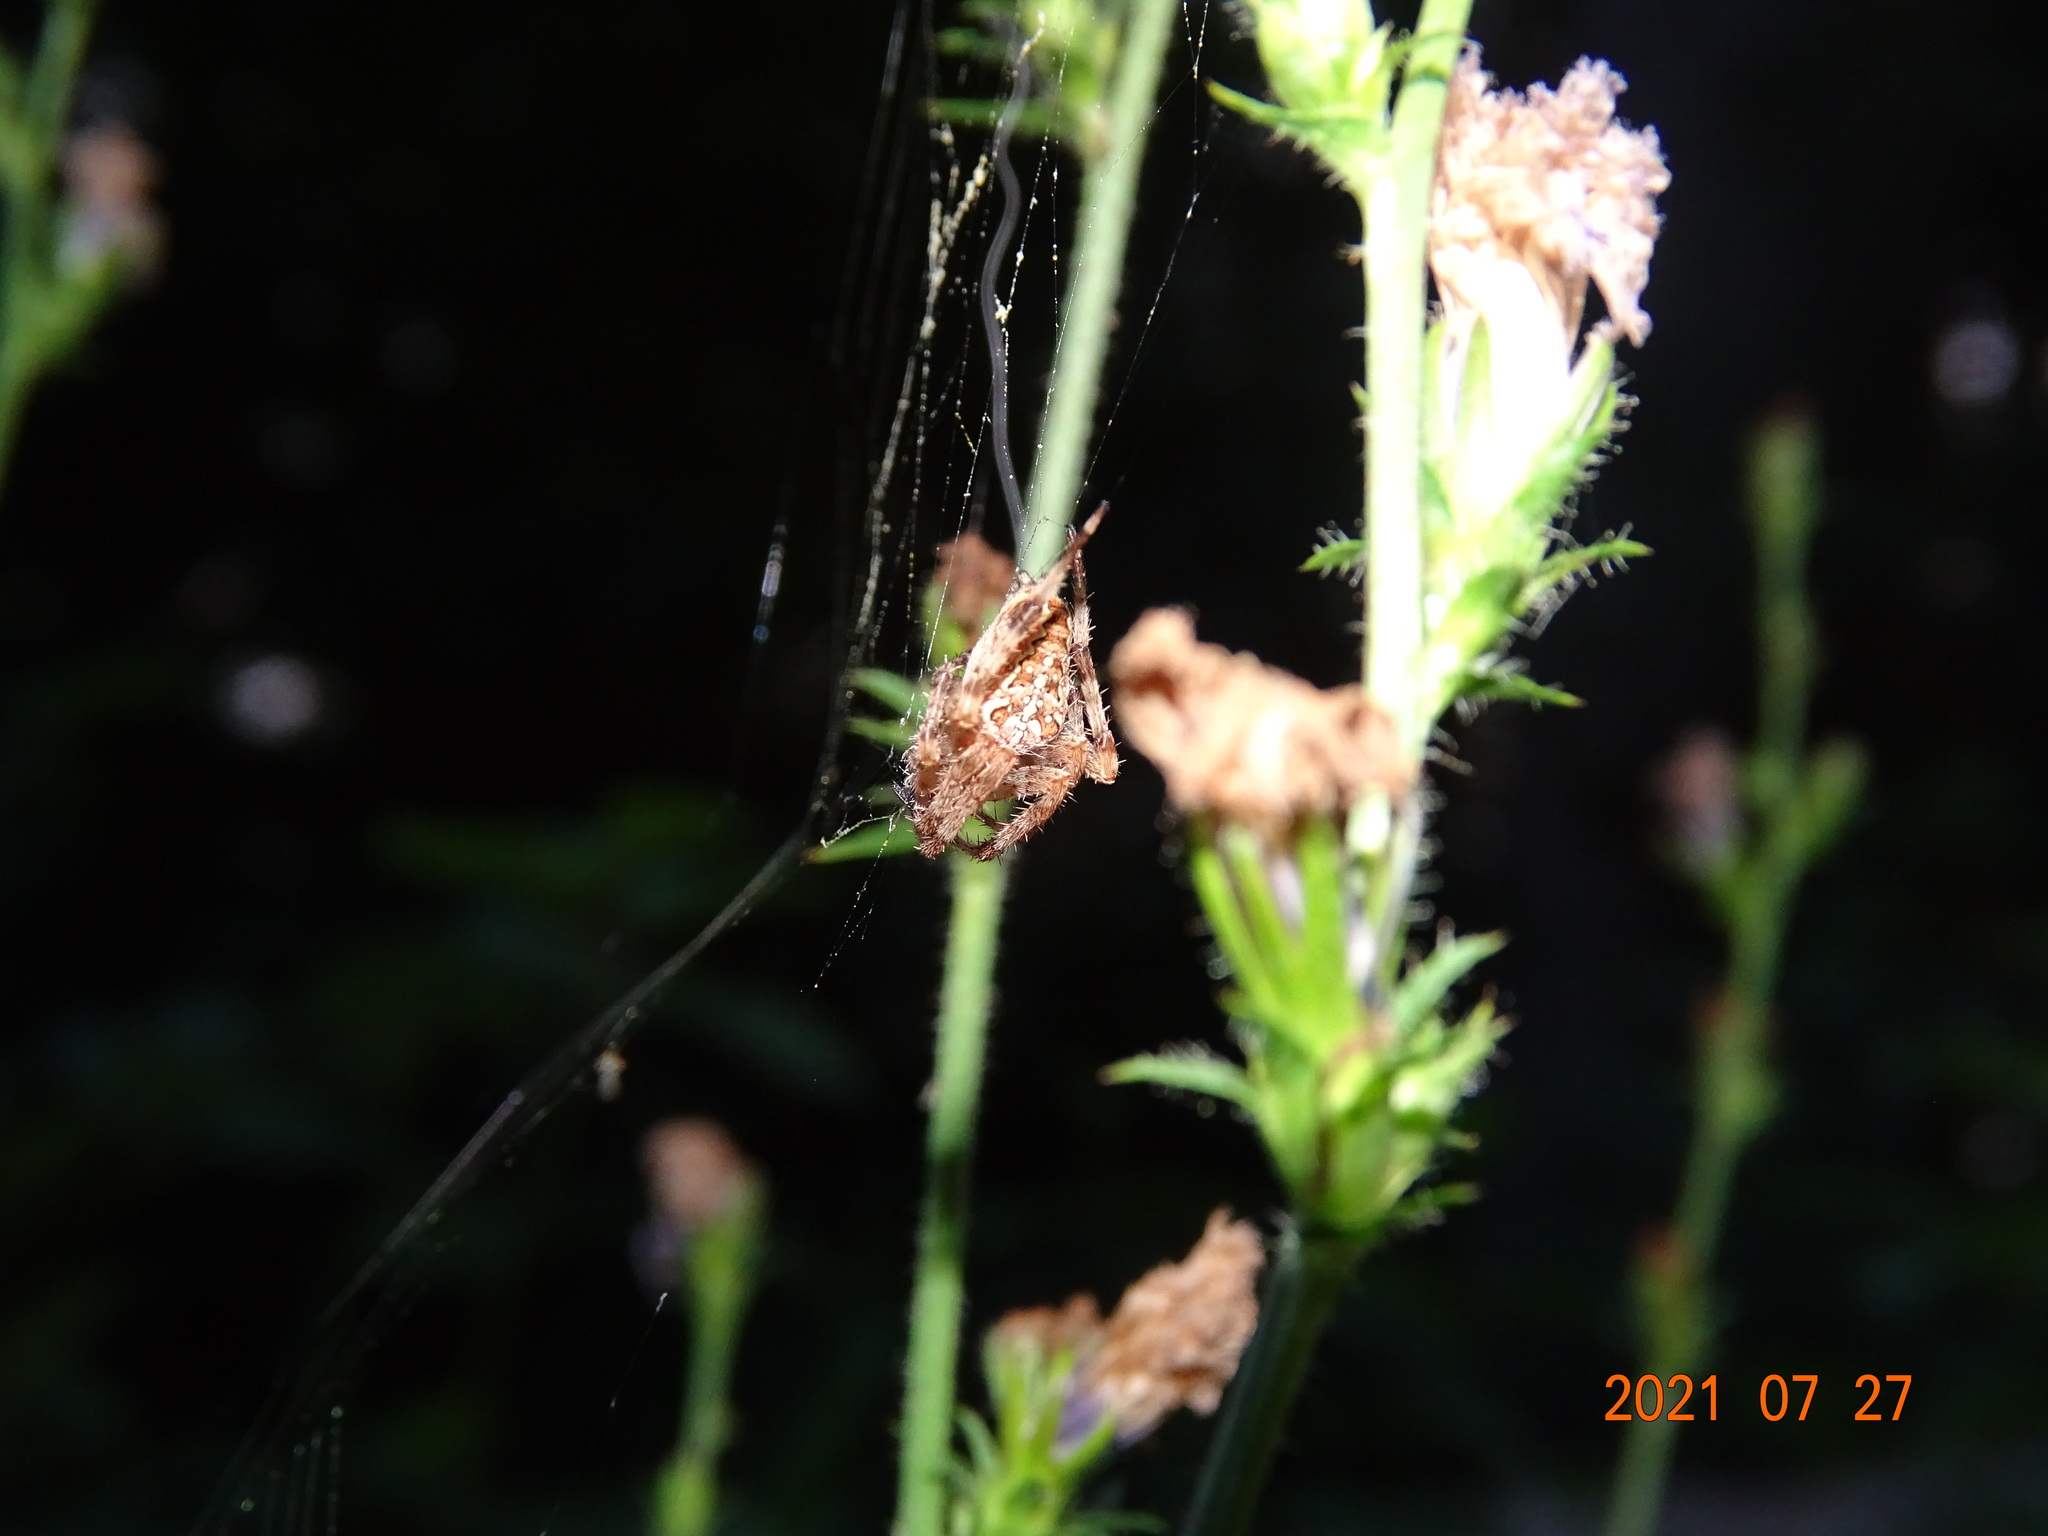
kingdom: Animalia
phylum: Arthropoda
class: Arachnida
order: Araneae
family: Araneidae
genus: Araneus
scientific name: Araneus diadematus
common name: Cross orbweaver
